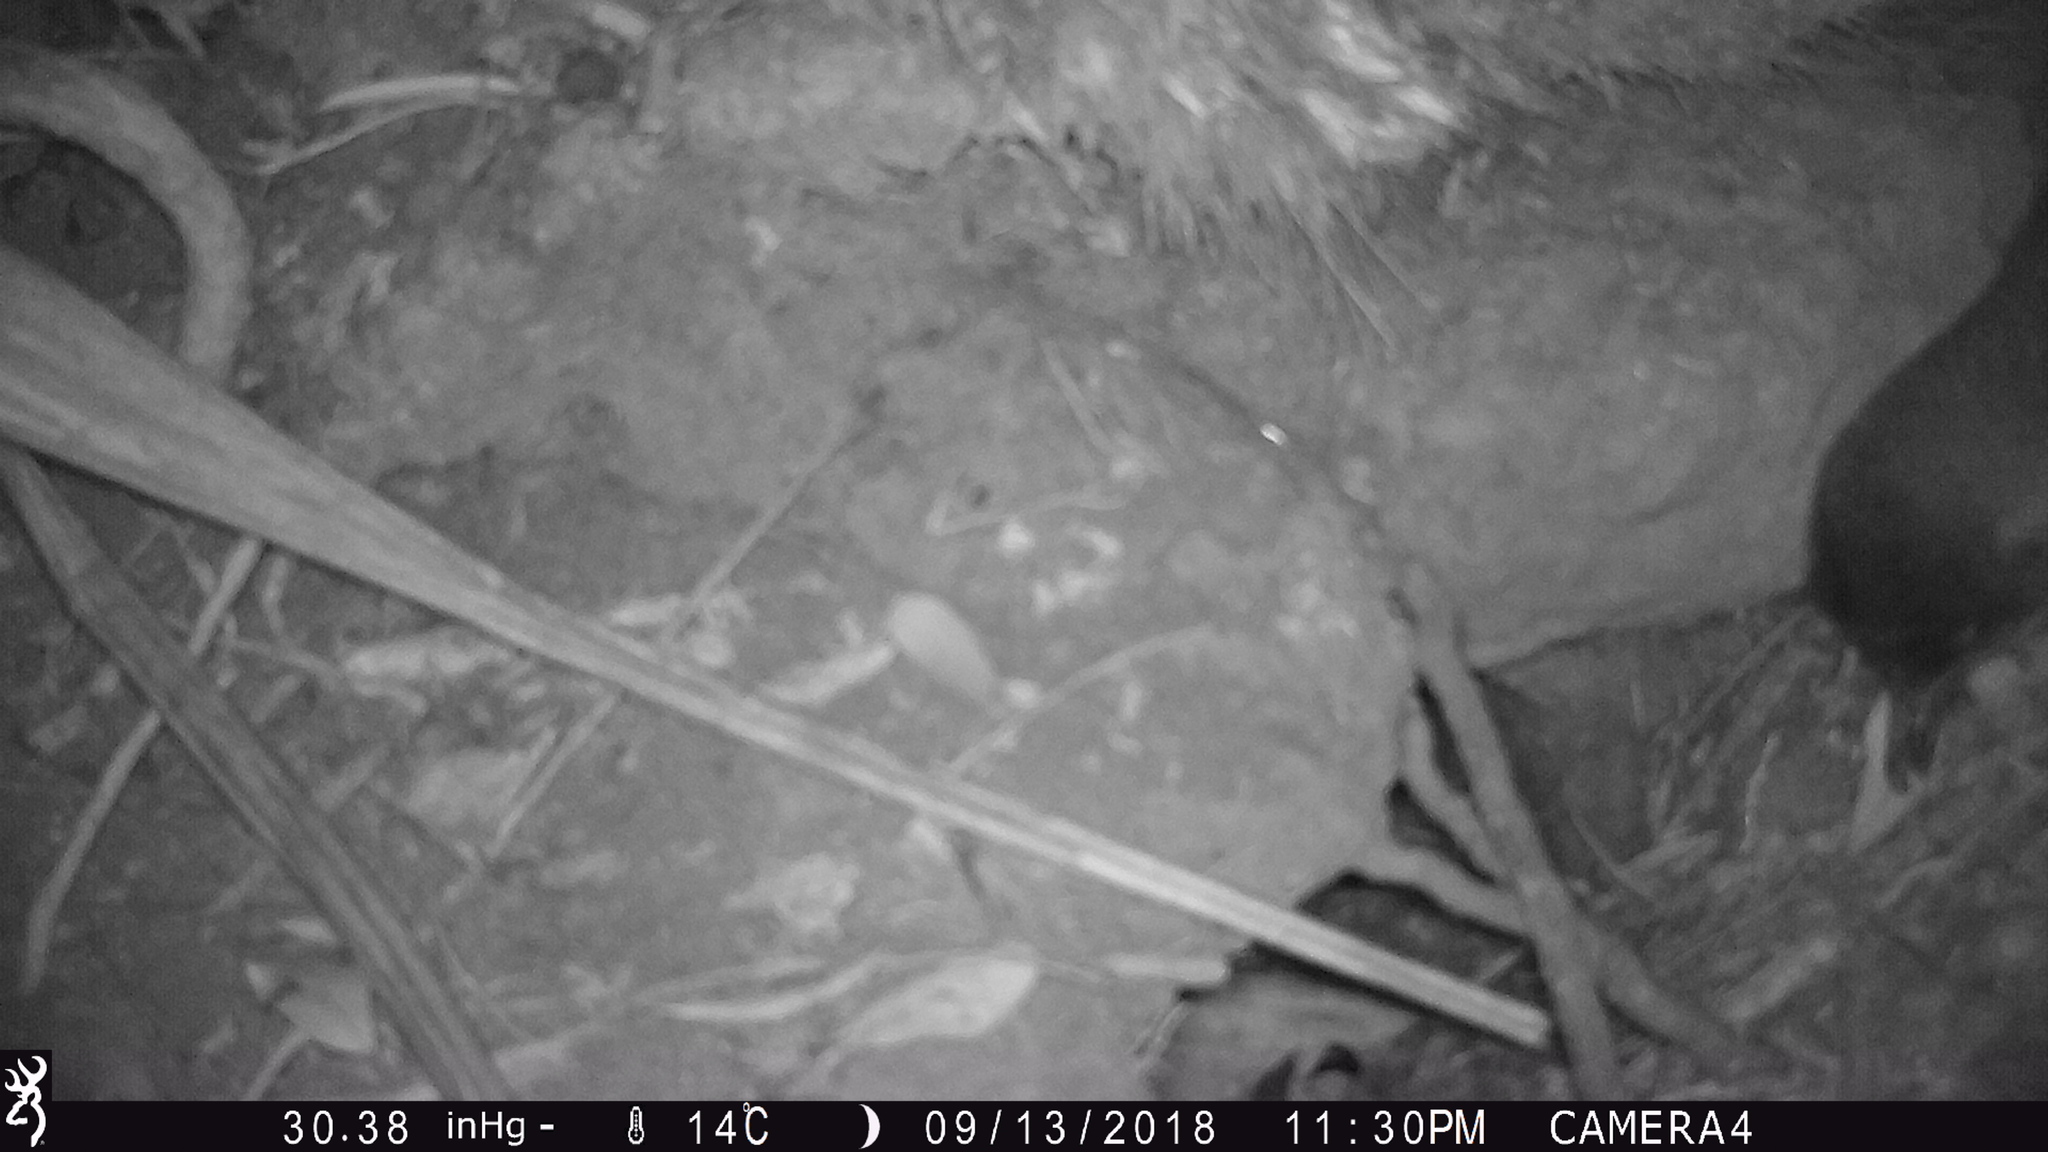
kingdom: Animalia
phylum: Chordata
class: Aves
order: Sphenisciformes
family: Spheniscidae
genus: Eudyptula
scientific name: Eudyptula minor
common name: Little penguin
